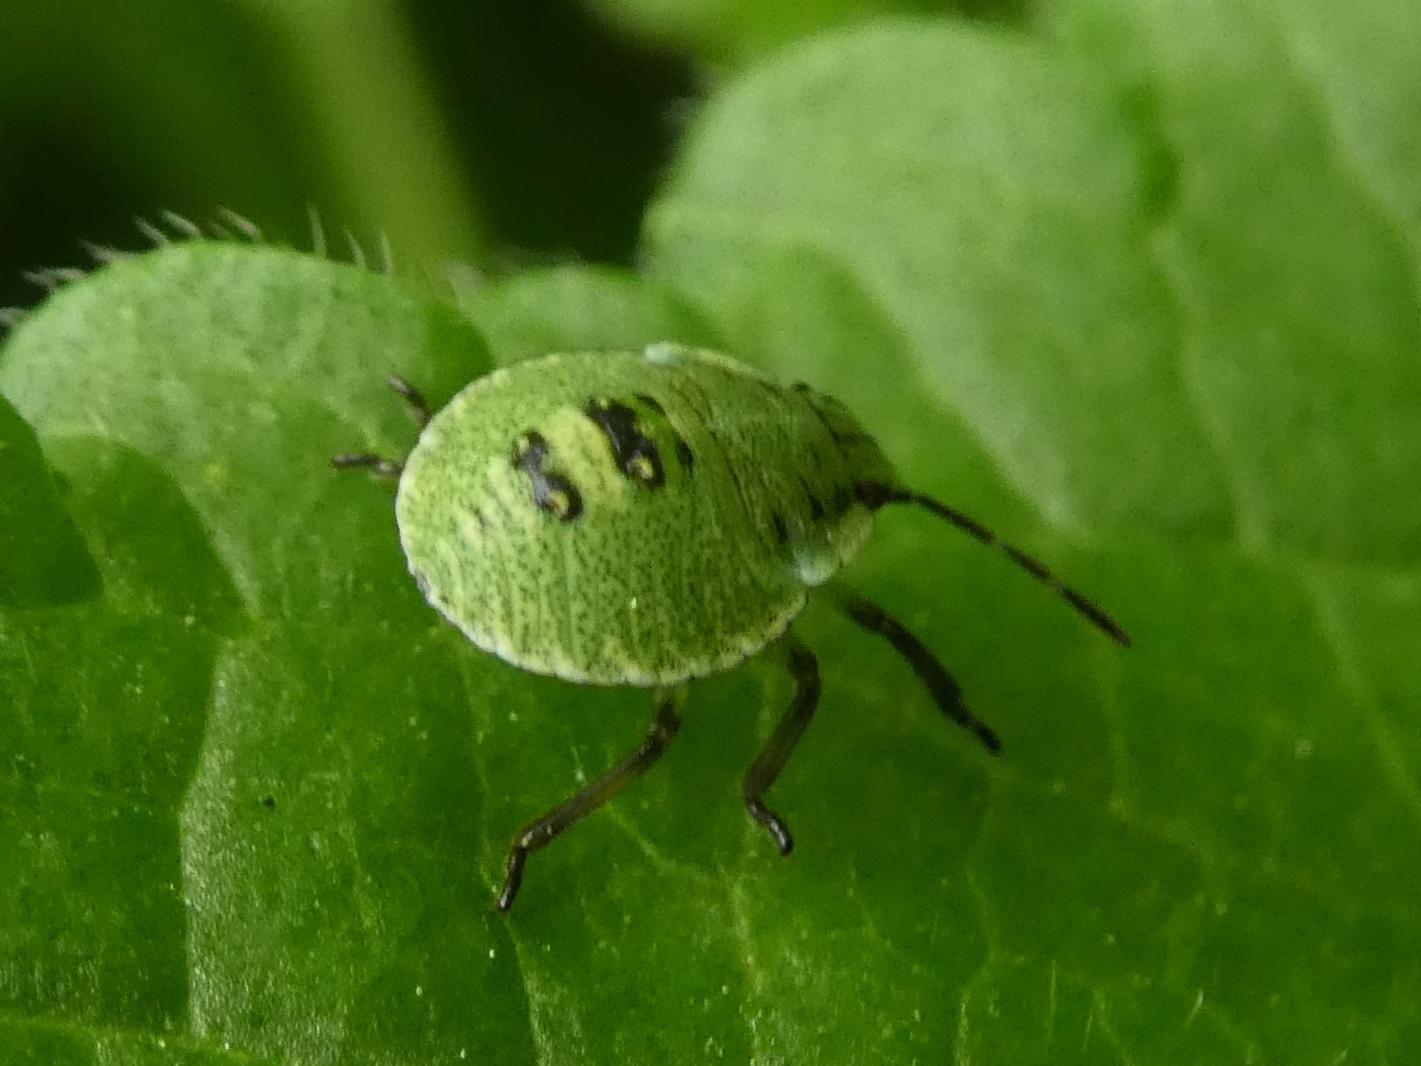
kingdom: Animalia
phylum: Arthropoda
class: Insecta
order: Hemiptera
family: Pentatomidae
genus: Palomena
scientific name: Palomena prasina
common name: Green shieldbug
